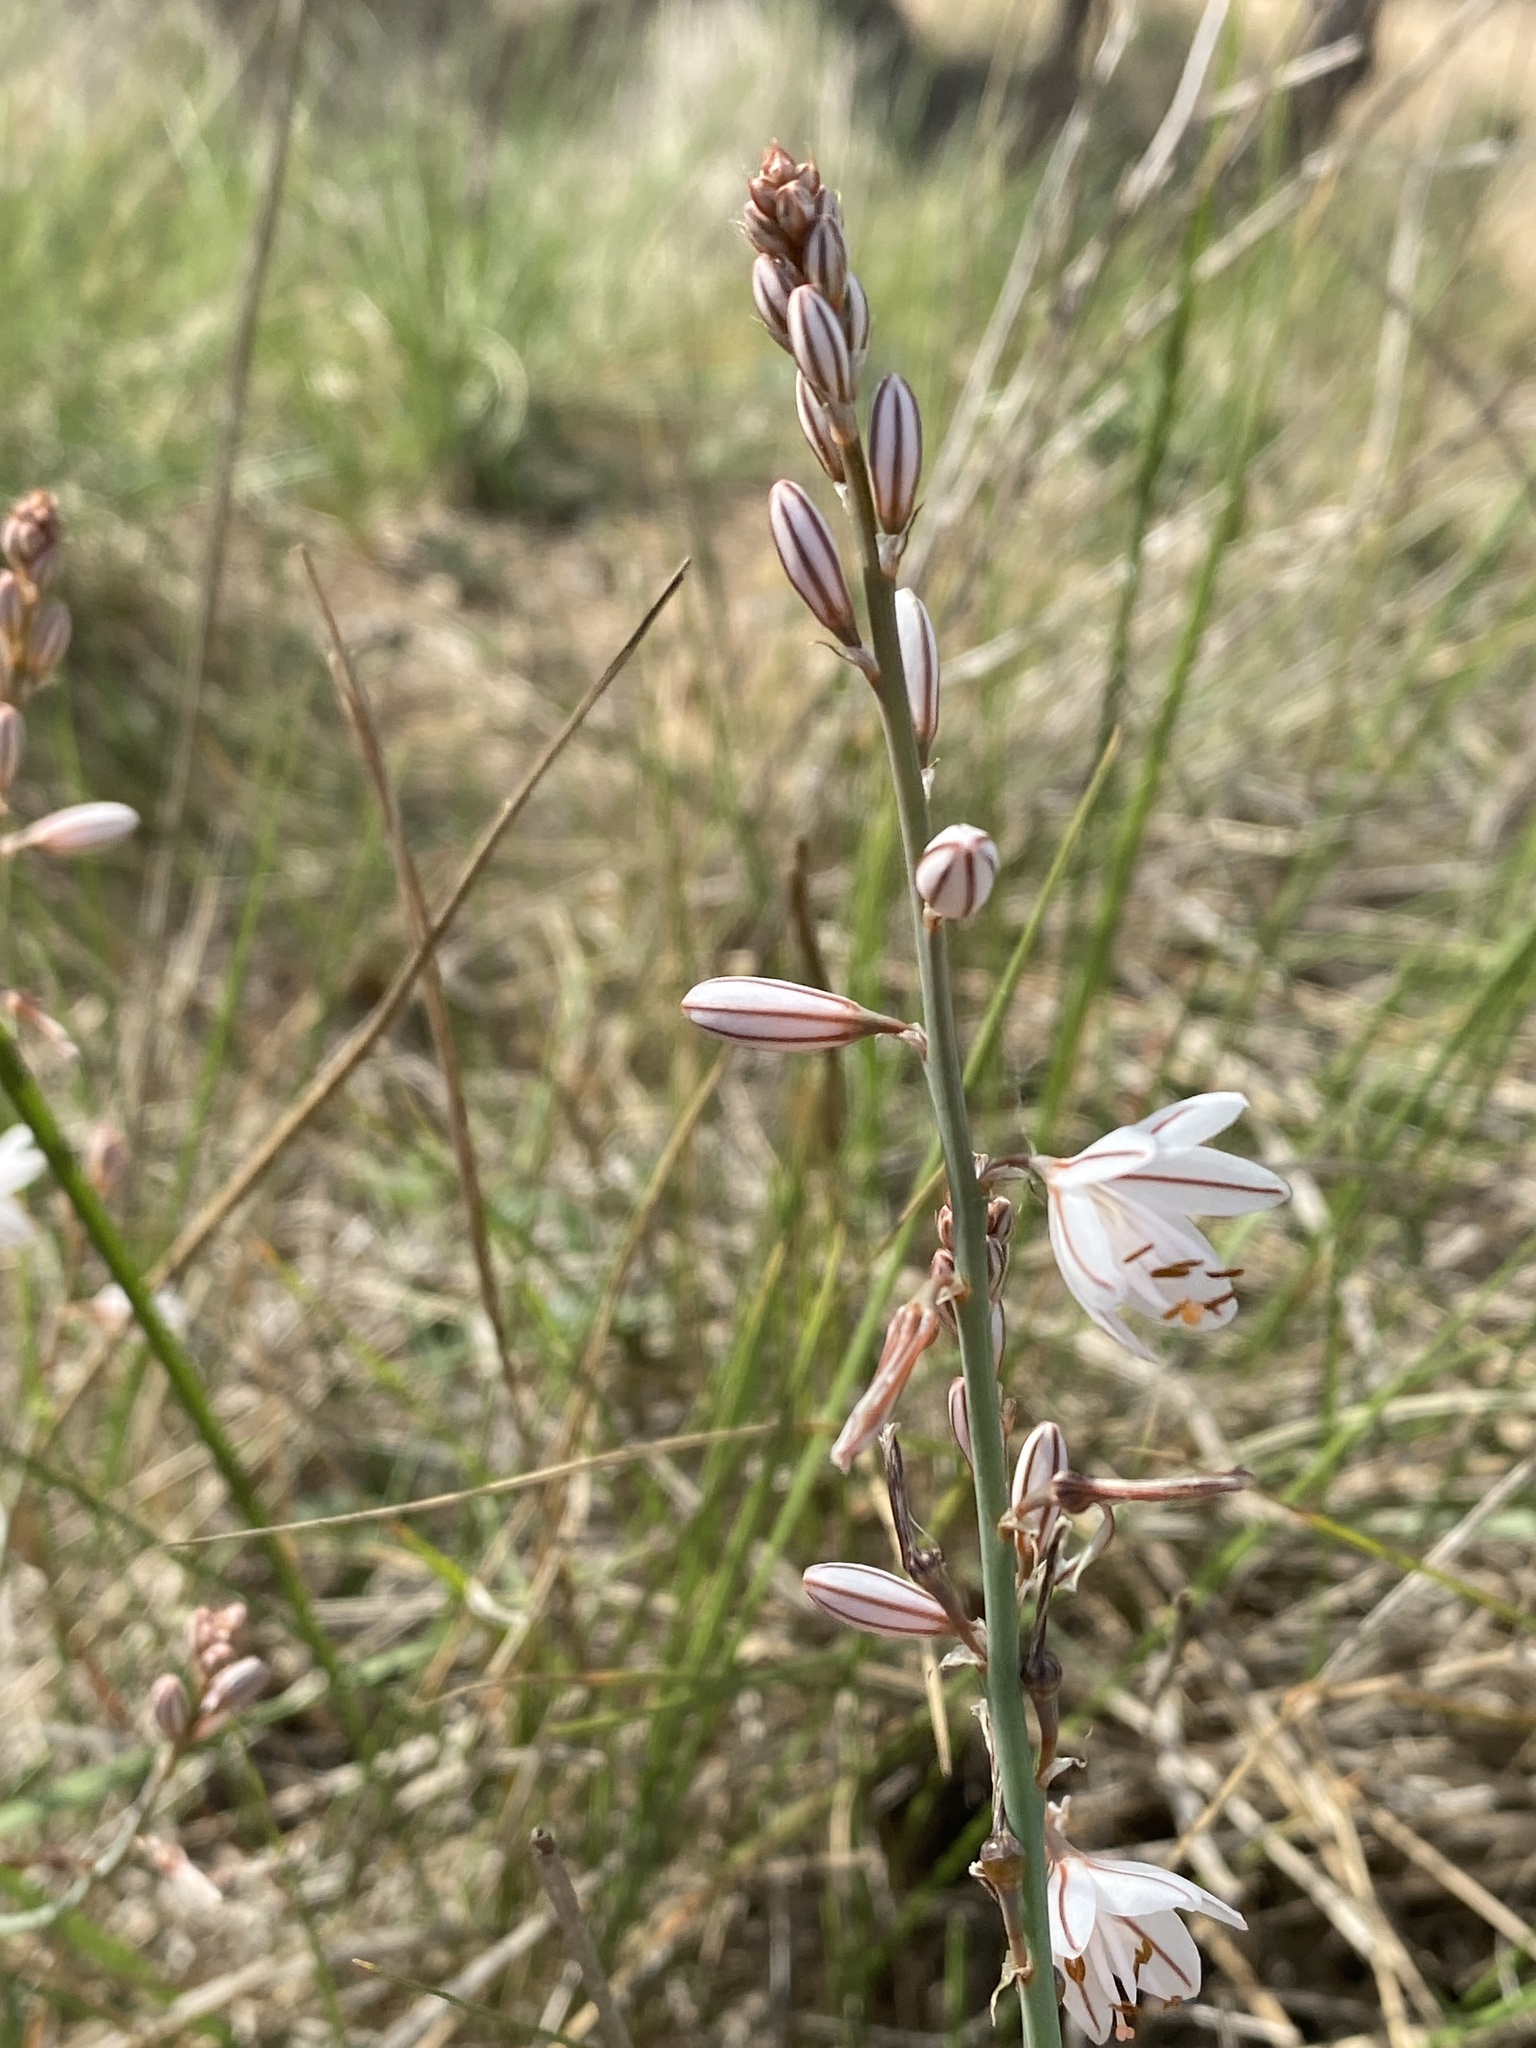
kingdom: Plantae
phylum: Tracheophyta
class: Liliopsida
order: Asparagales
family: Asphodelaceae
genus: Asphodelus
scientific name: Asphodelus fistulosus
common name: Onionweed
